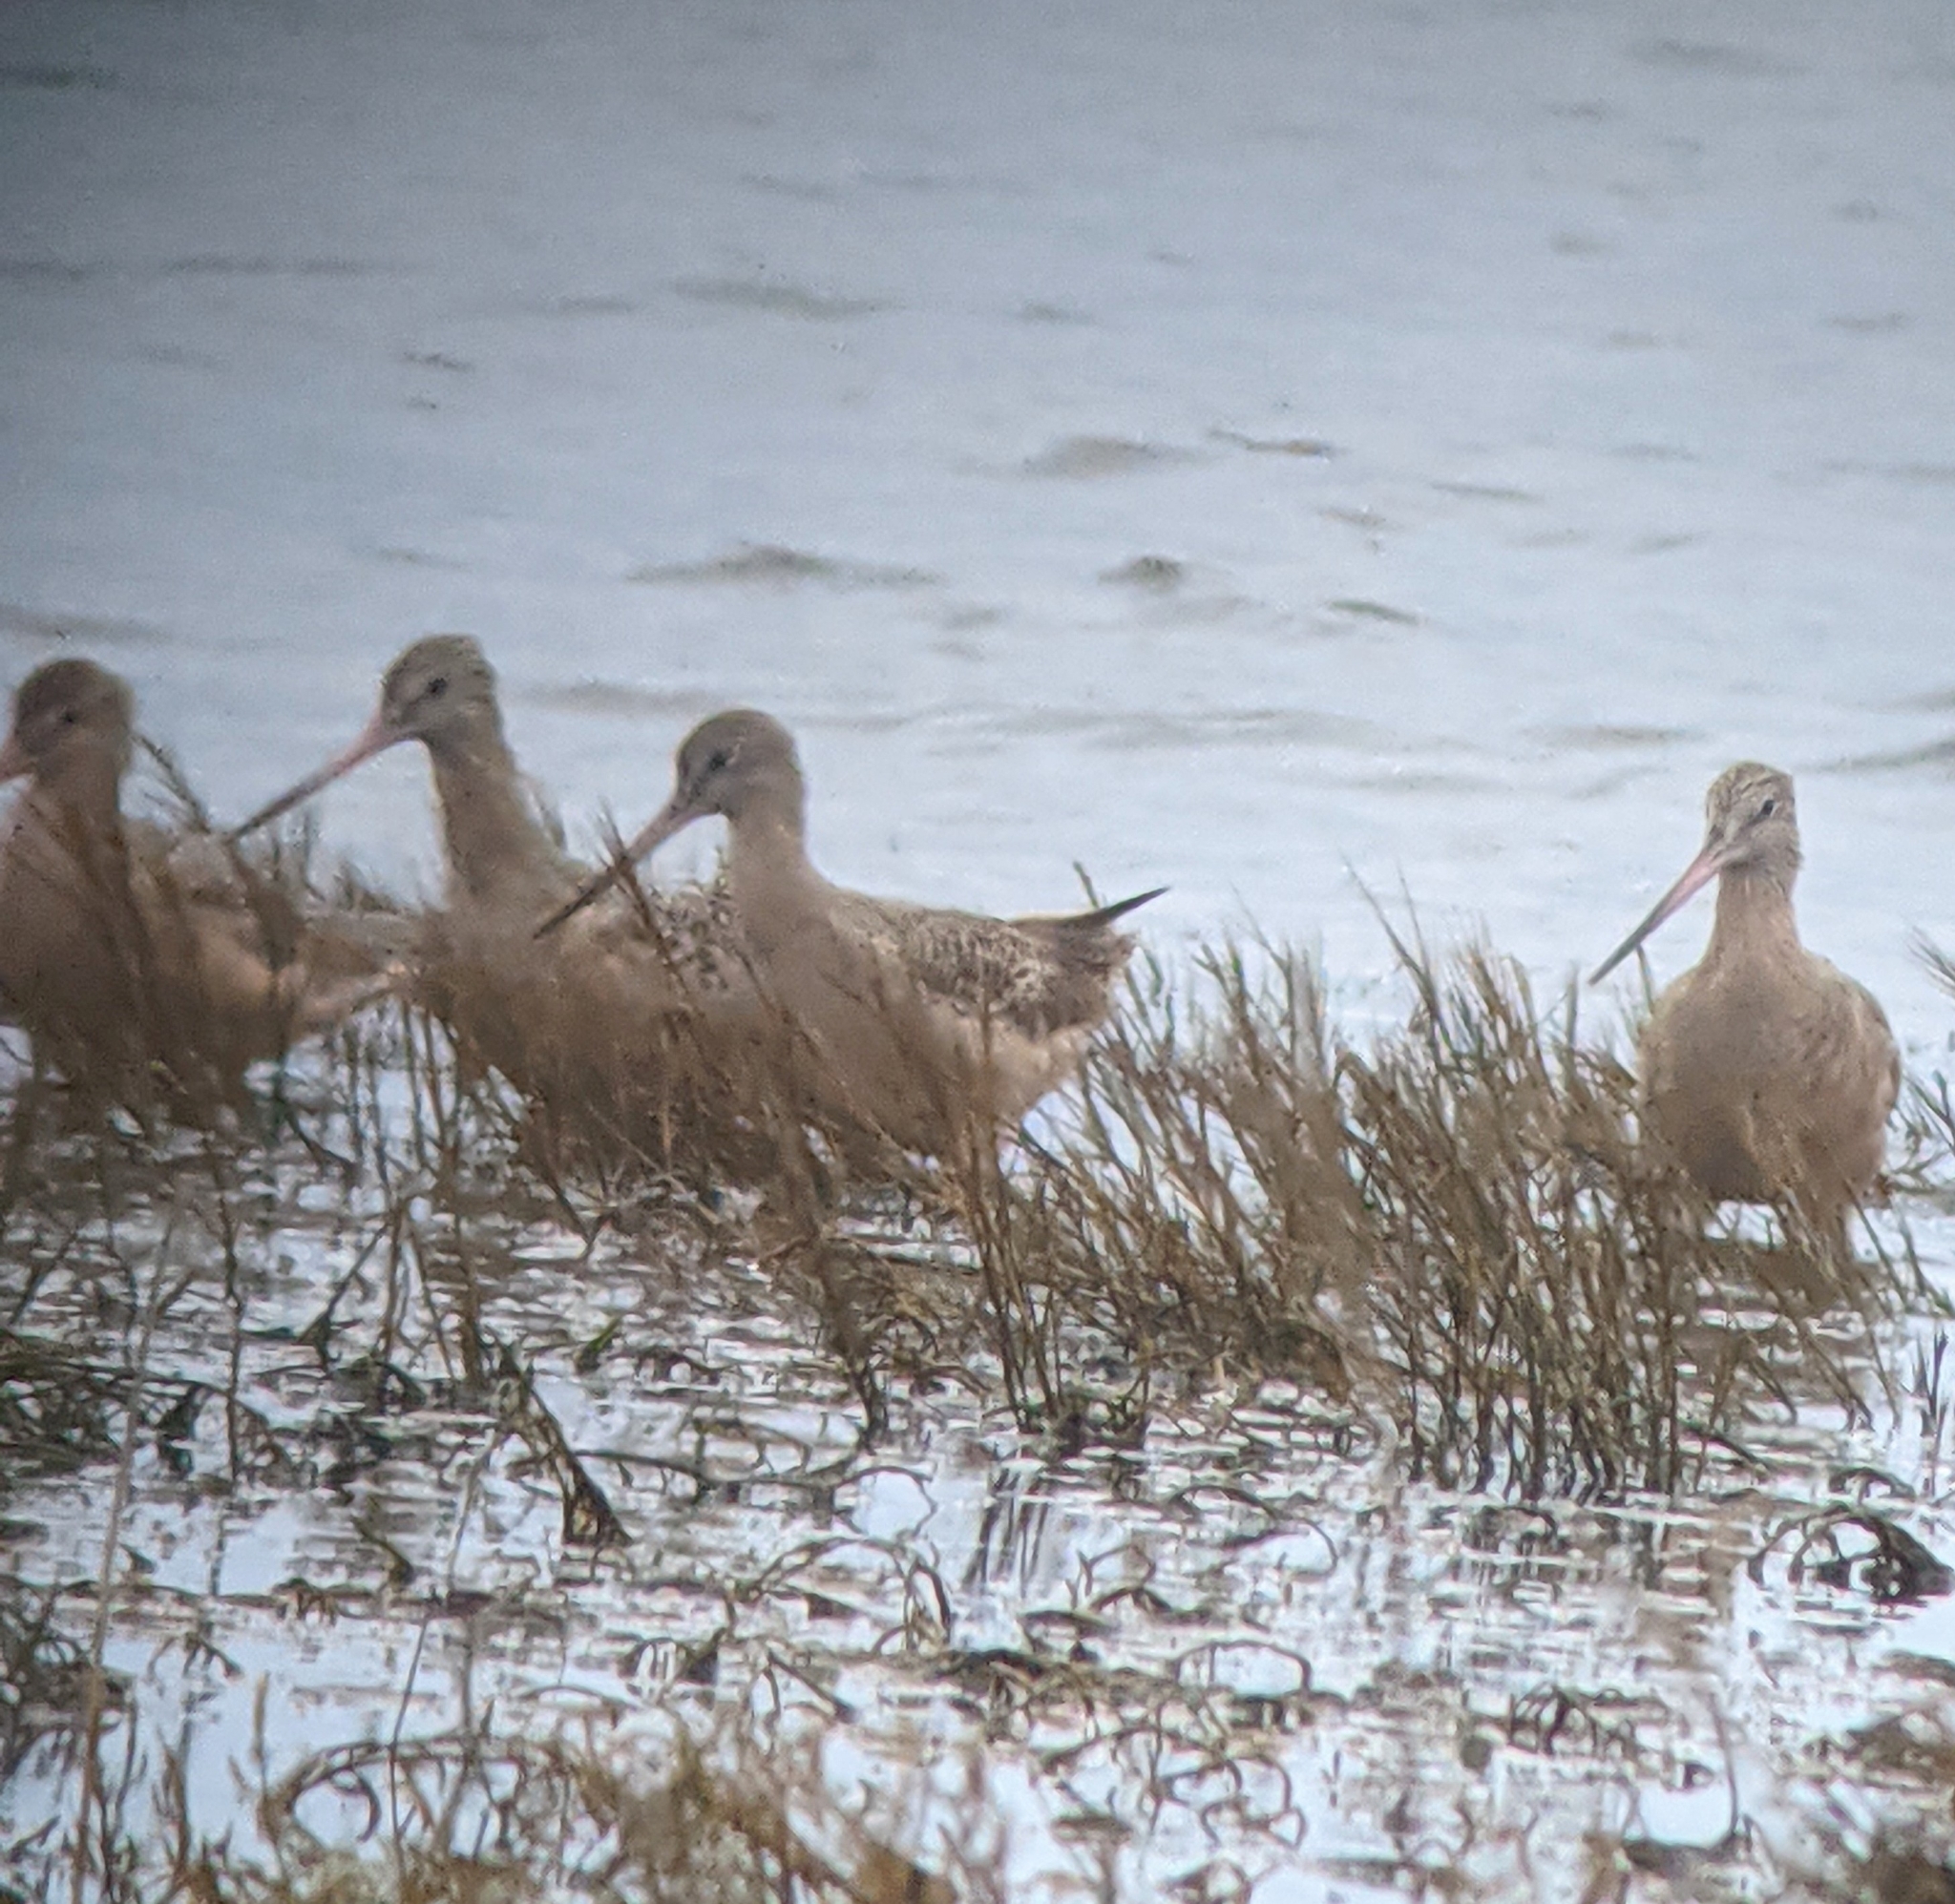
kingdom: Animalia
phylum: Chordata
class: Aves
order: Charadriiformes
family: Scolopacidae
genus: Limosa
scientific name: Limosa fedoa
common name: Marbled godwit
